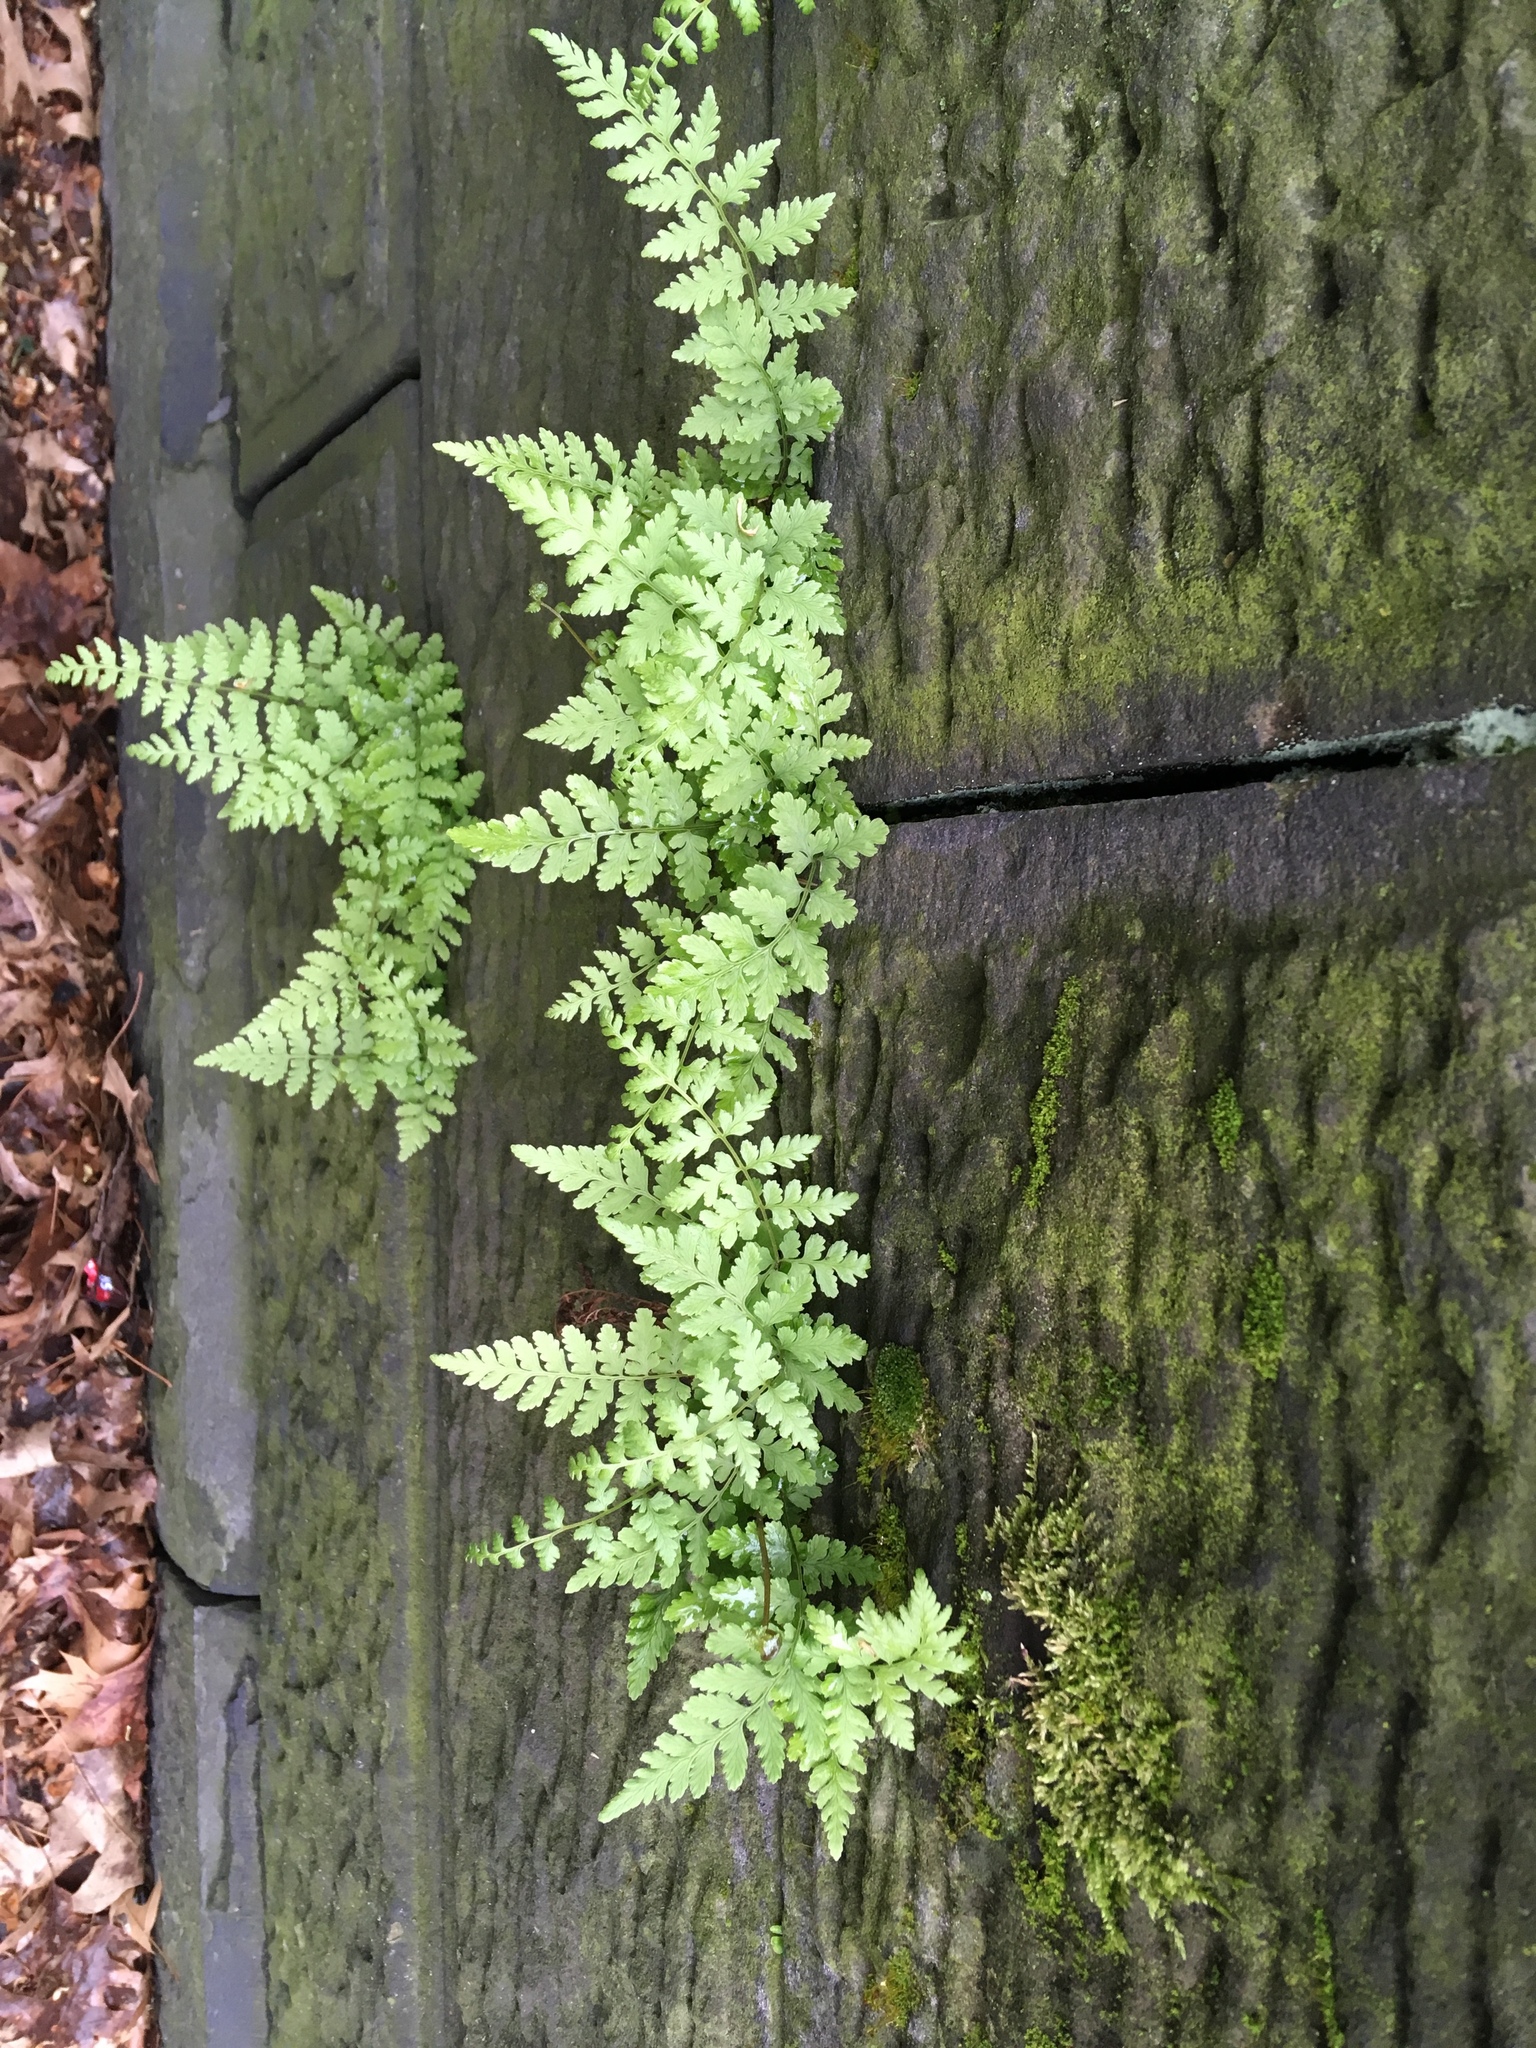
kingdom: Plantae
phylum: Tracheophyta
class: Polypodiopsida
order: Polypodiales
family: Cystopteridaceae
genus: Cystopteris
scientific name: Cystopteris tenuis
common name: Mackay's brittle fern
